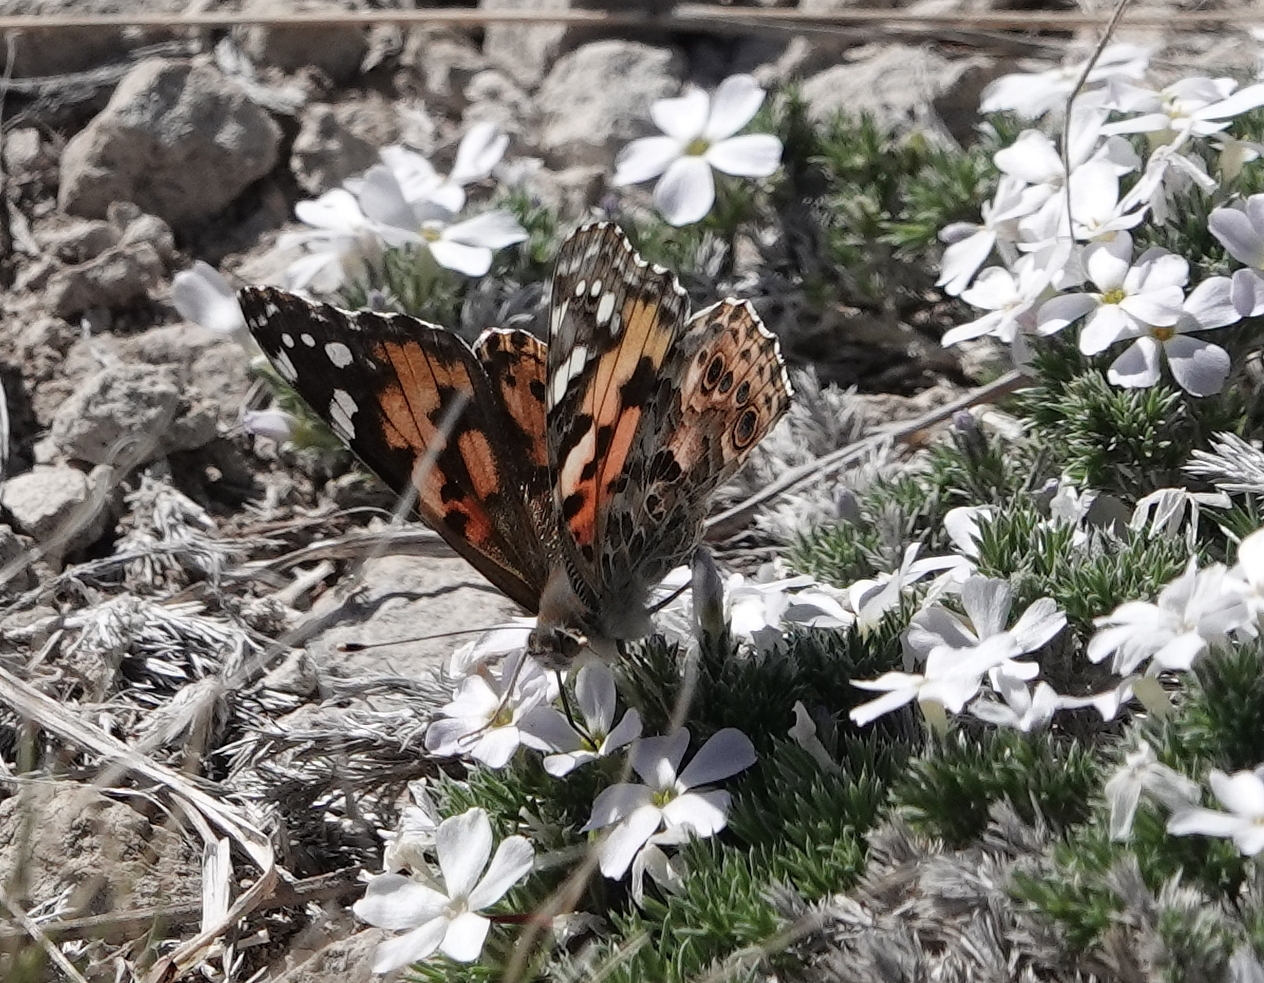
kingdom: Animalia
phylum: Arthropoda
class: Insecta
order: Lepidoptera
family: Nymphalidae
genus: Vanessa
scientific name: Vanessa cardui
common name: Painted lady
